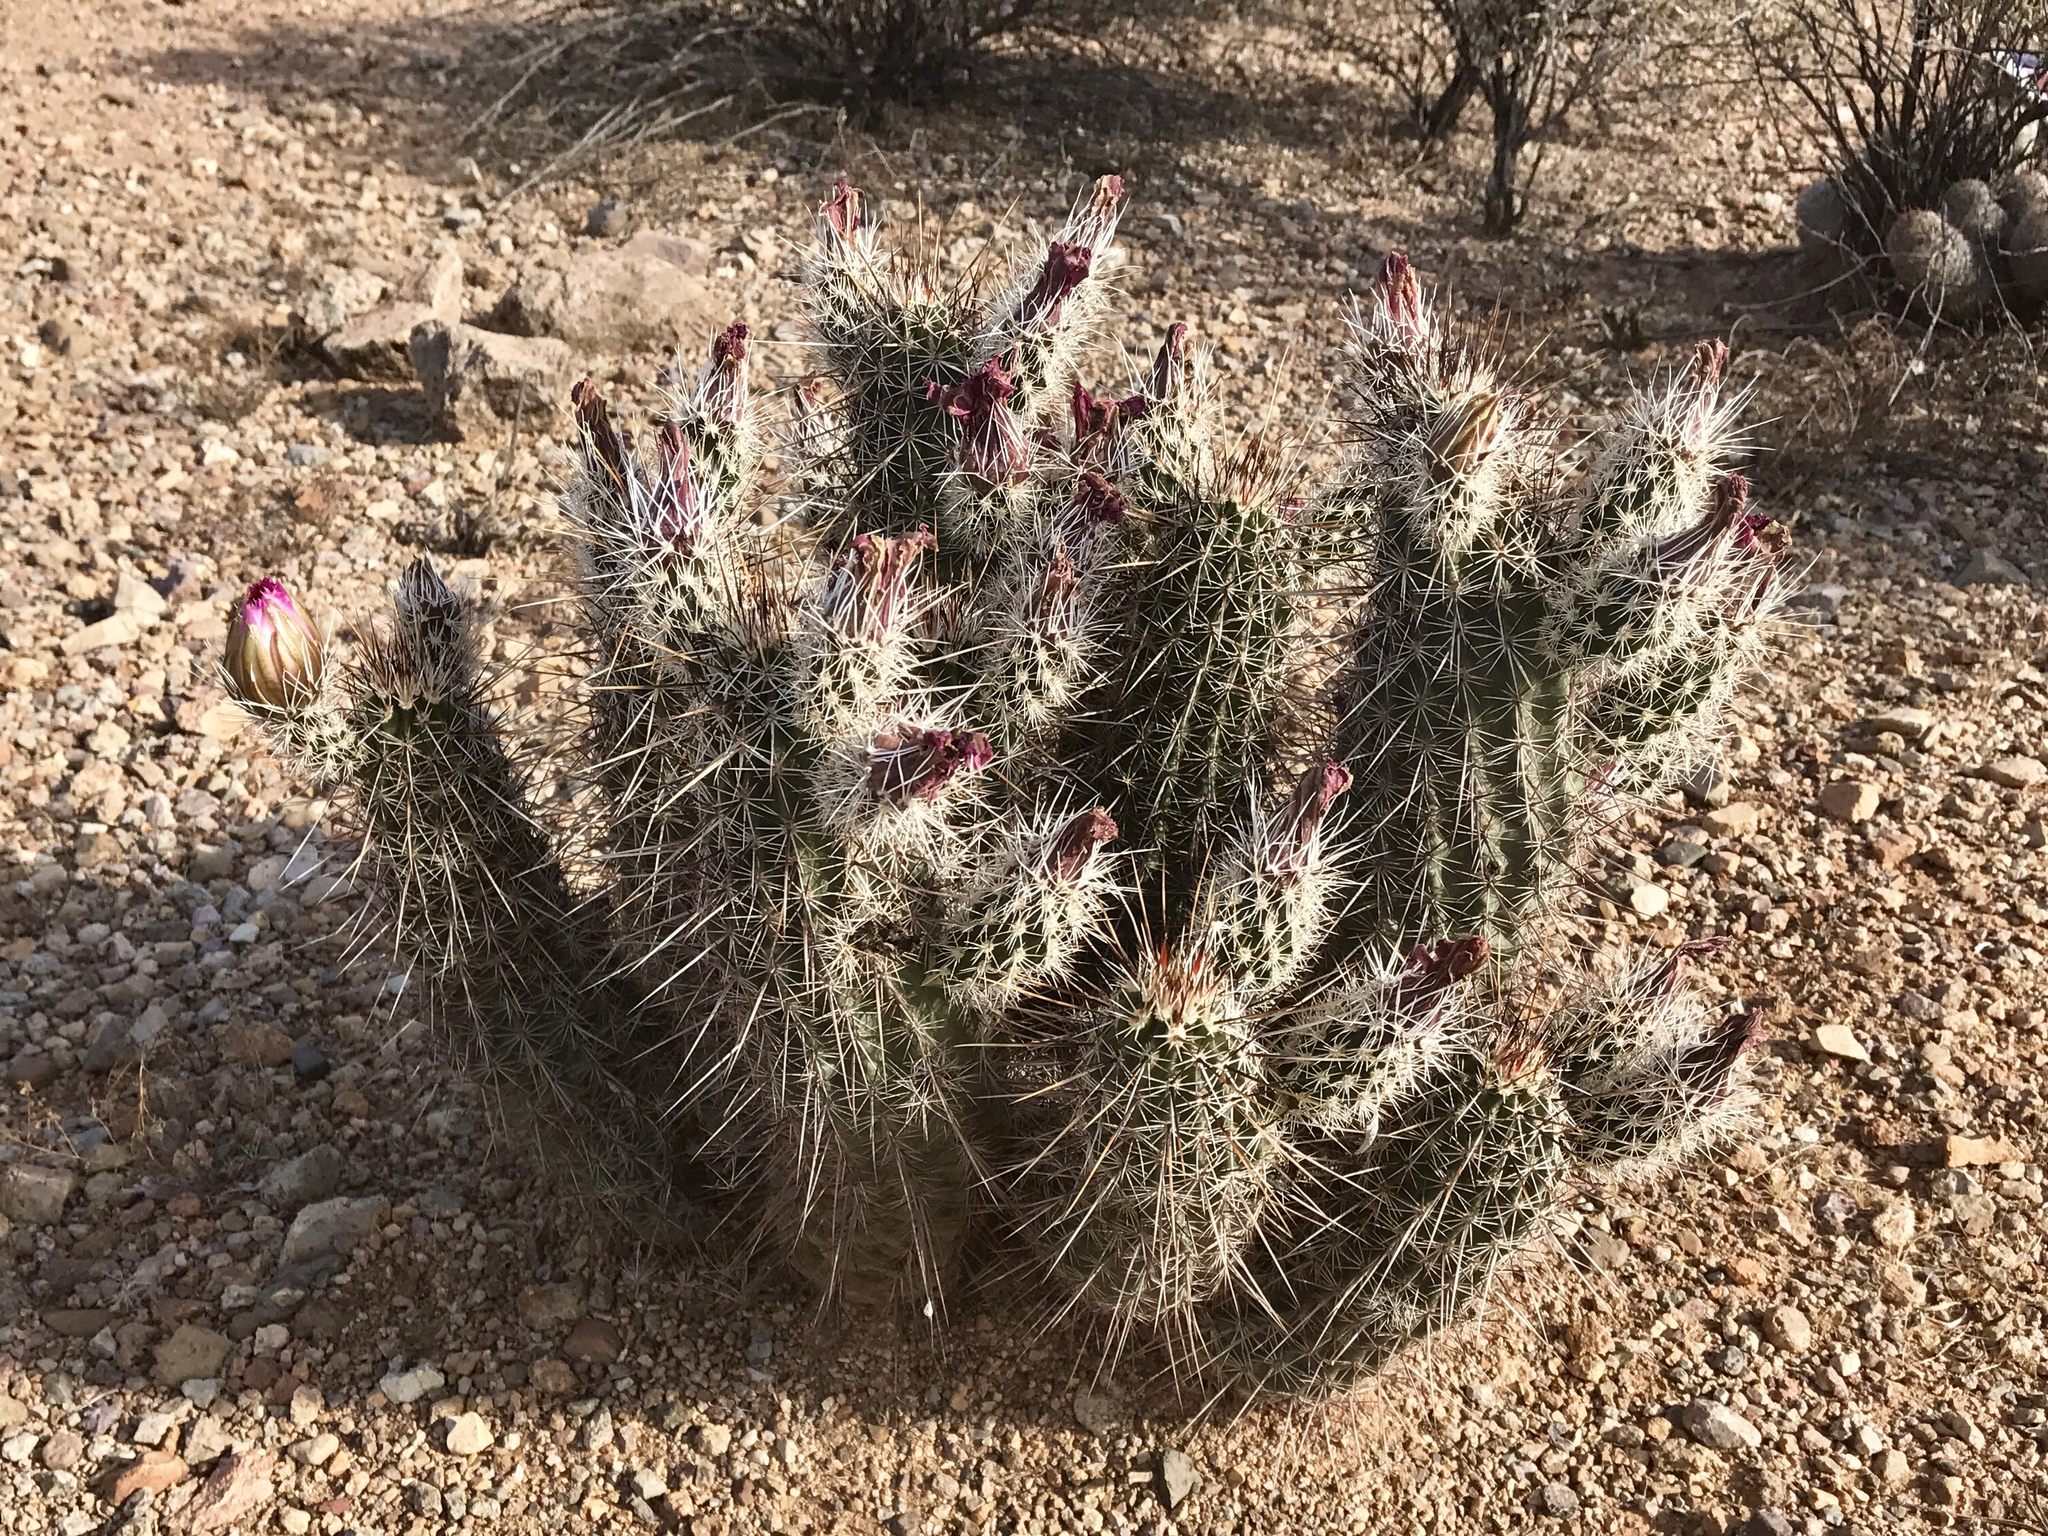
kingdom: Plantae
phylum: Tracheophyta
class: Magnoliopsida
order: Caryophyllales
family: Cactaceae
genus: Echinocereus
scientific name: Echinocereus fasciculatus
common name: Bundle hedgehog
